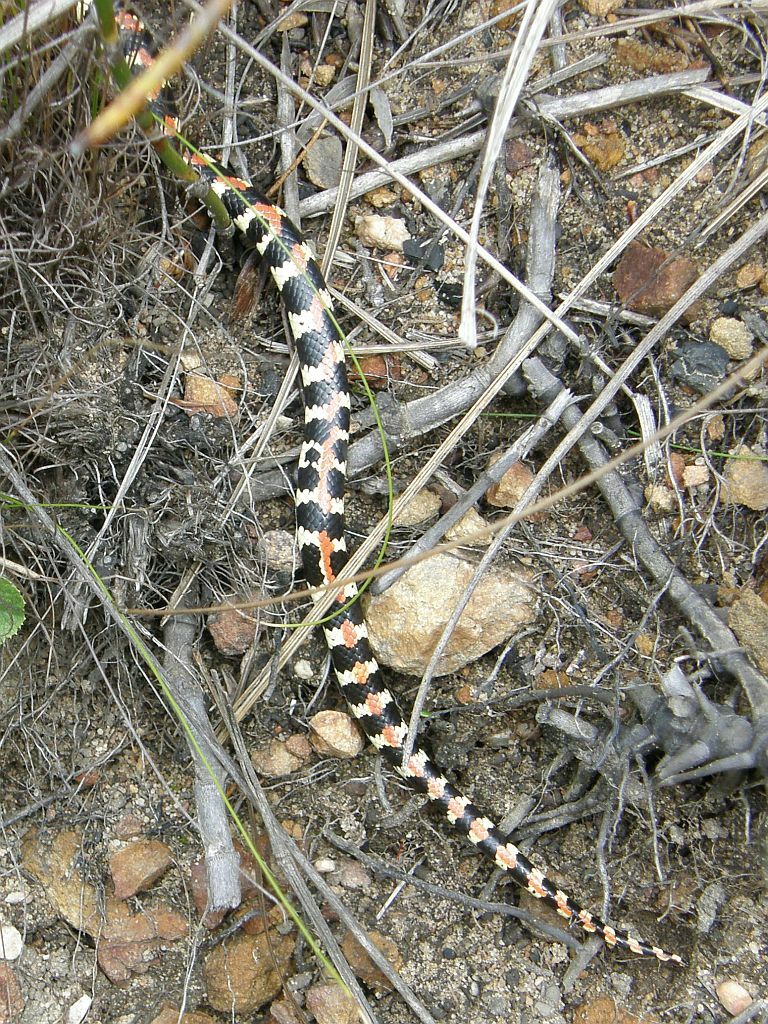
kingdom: Animalia
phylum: Chordata
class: Squamata
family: Atractaspididae
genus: Homoroselaps
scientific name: Homoroselaps lacteus
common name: Spotted harlequin snake
